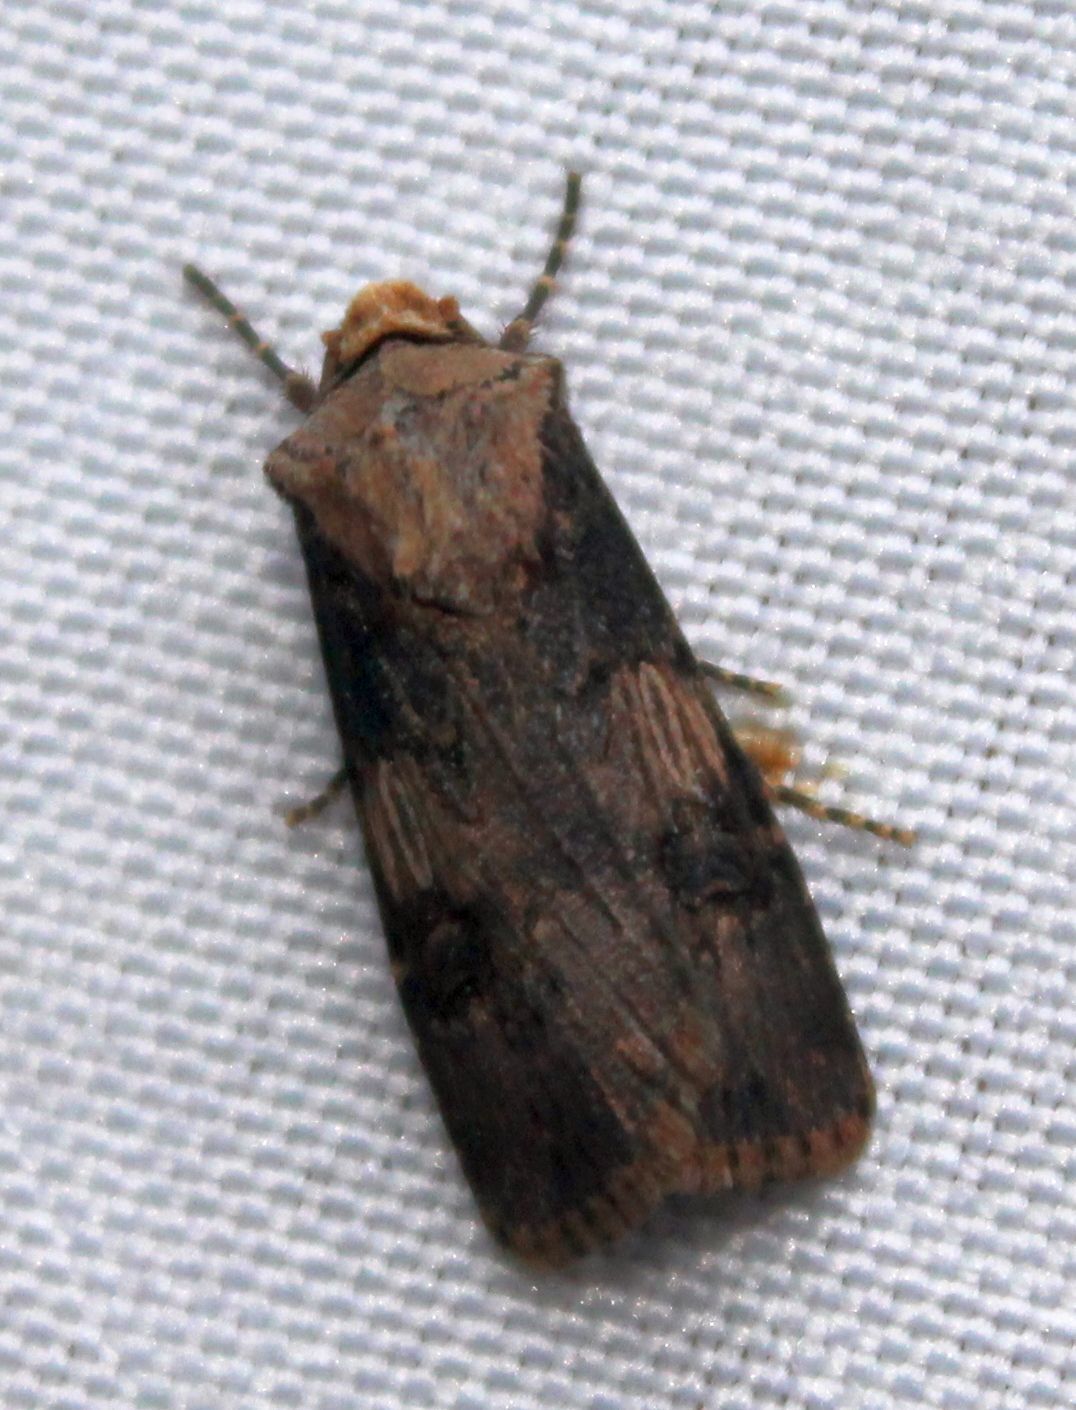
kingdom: Animalia
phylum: Arthropoda
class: Insecta
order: Lepidoptera
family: Noctuidae
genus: Agrotis
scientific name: Agrotis puta
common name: Shuttle-shaped dart
